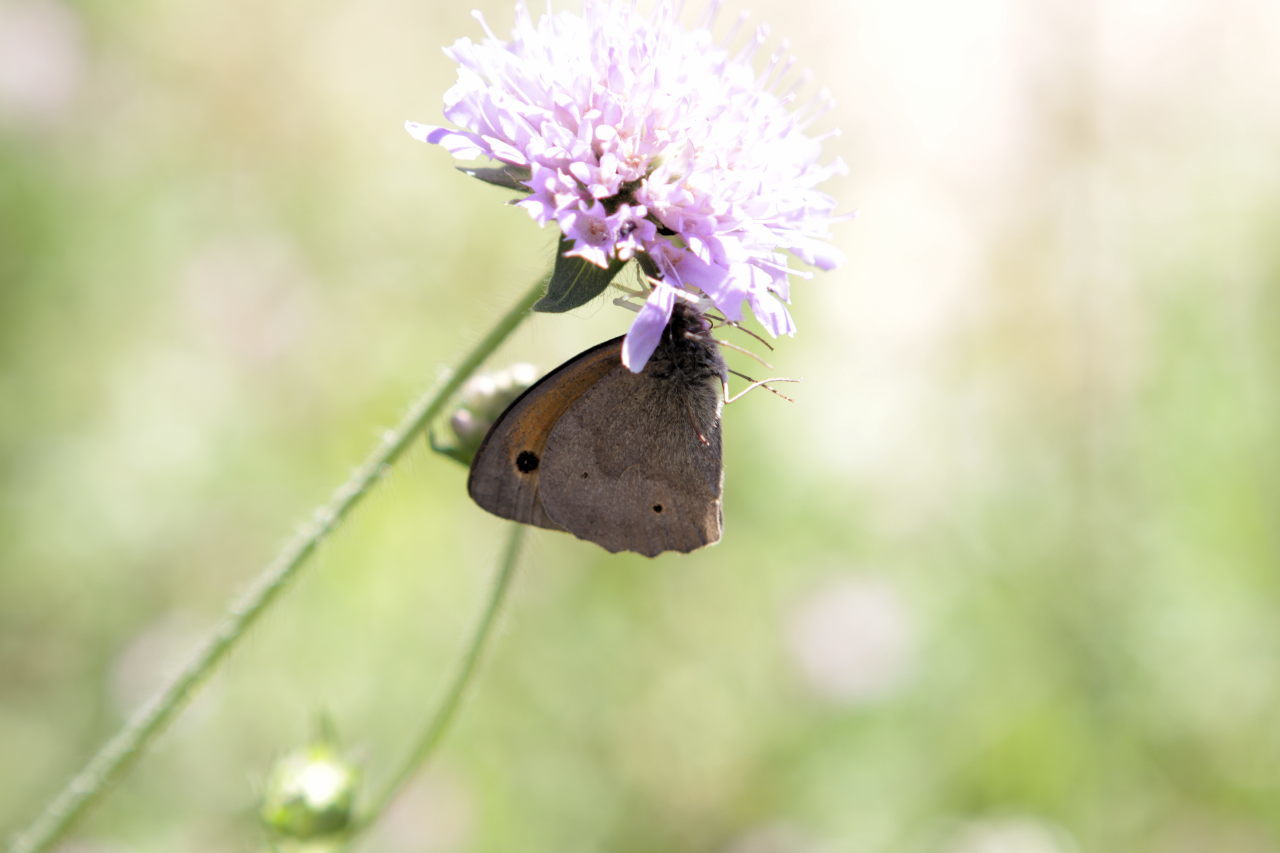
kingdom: Animalia
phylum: Arthropoda
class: Insecta
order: Lepidoptera
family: Nymphalidae
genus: Maniola
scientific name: Maniola jurtina
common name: Meadow brown
